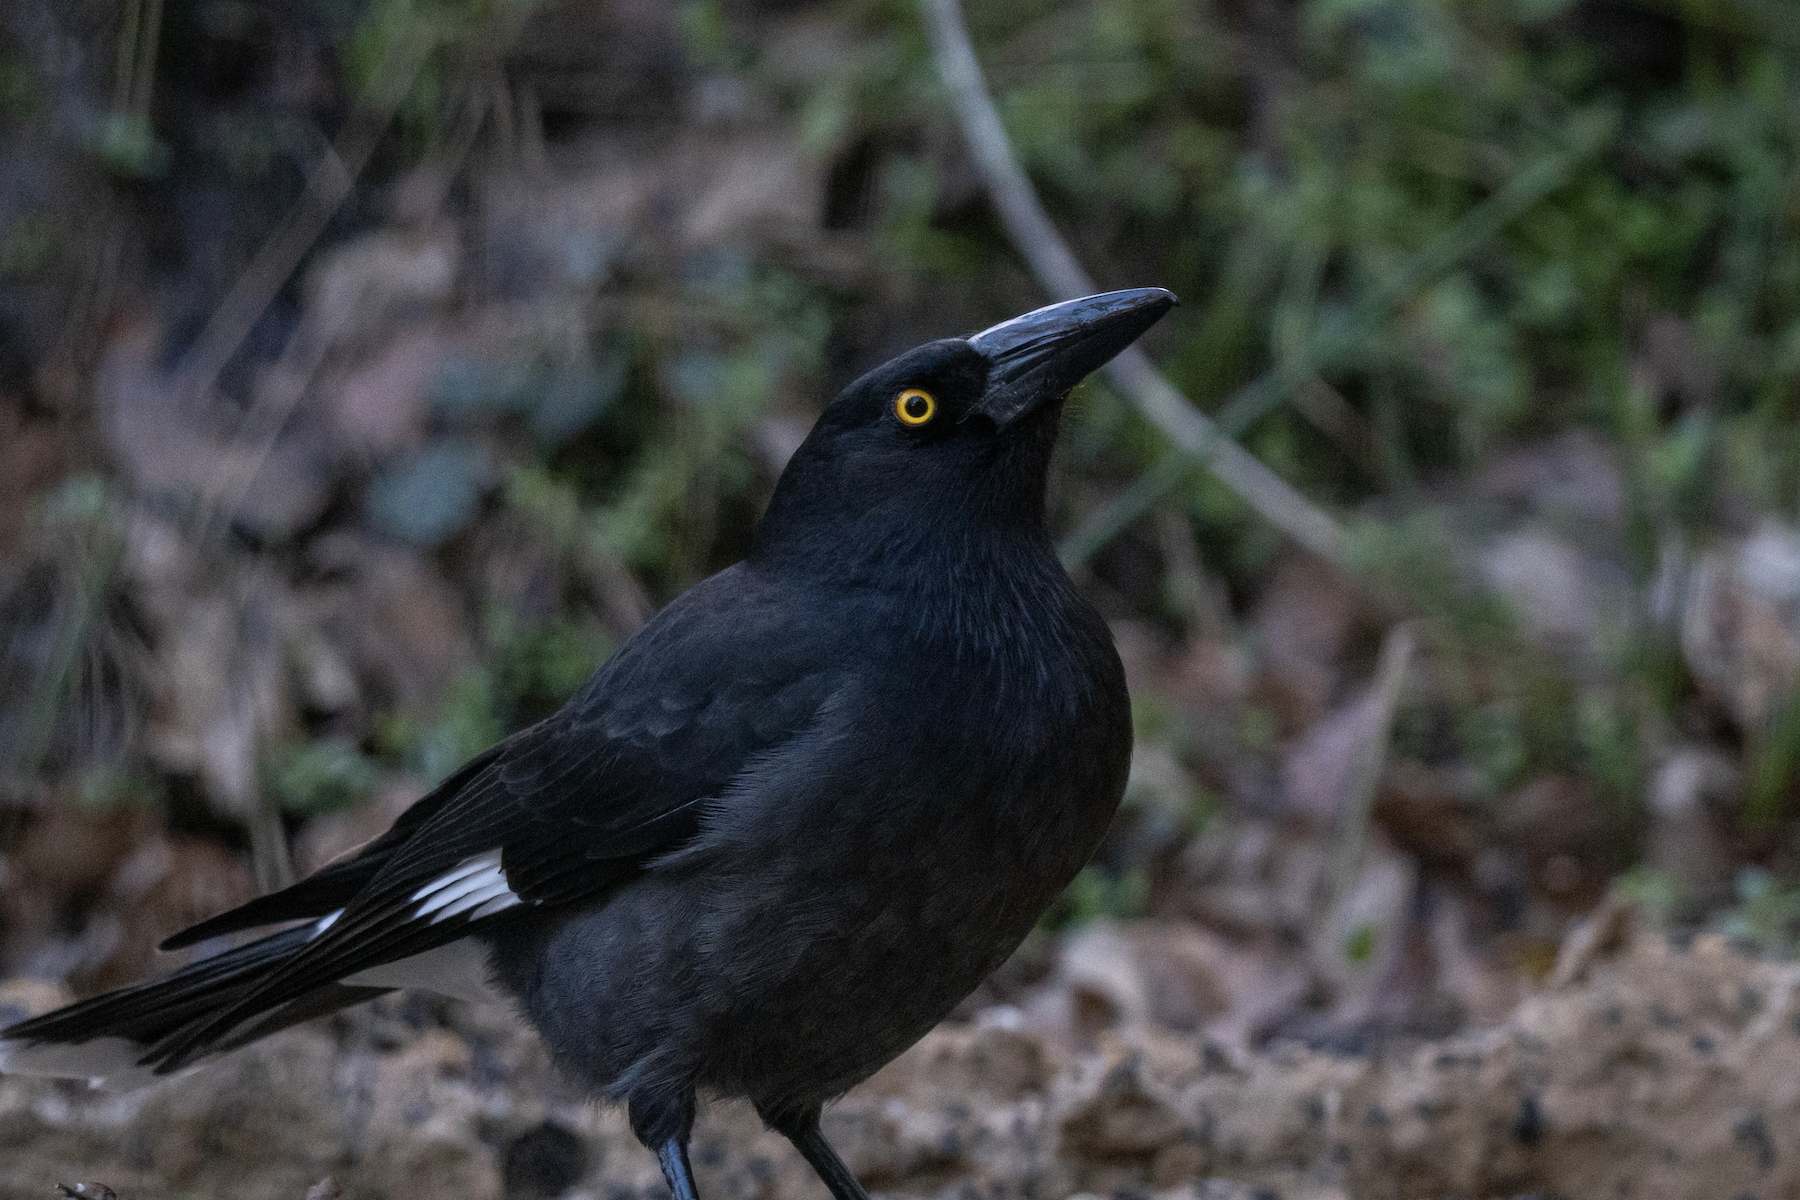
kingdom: Animalia
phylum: Chordata
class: Aves
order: Passeriformes
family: Cracticidae
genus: Strepera
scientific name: Strepera graculina
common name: Pied currawong
